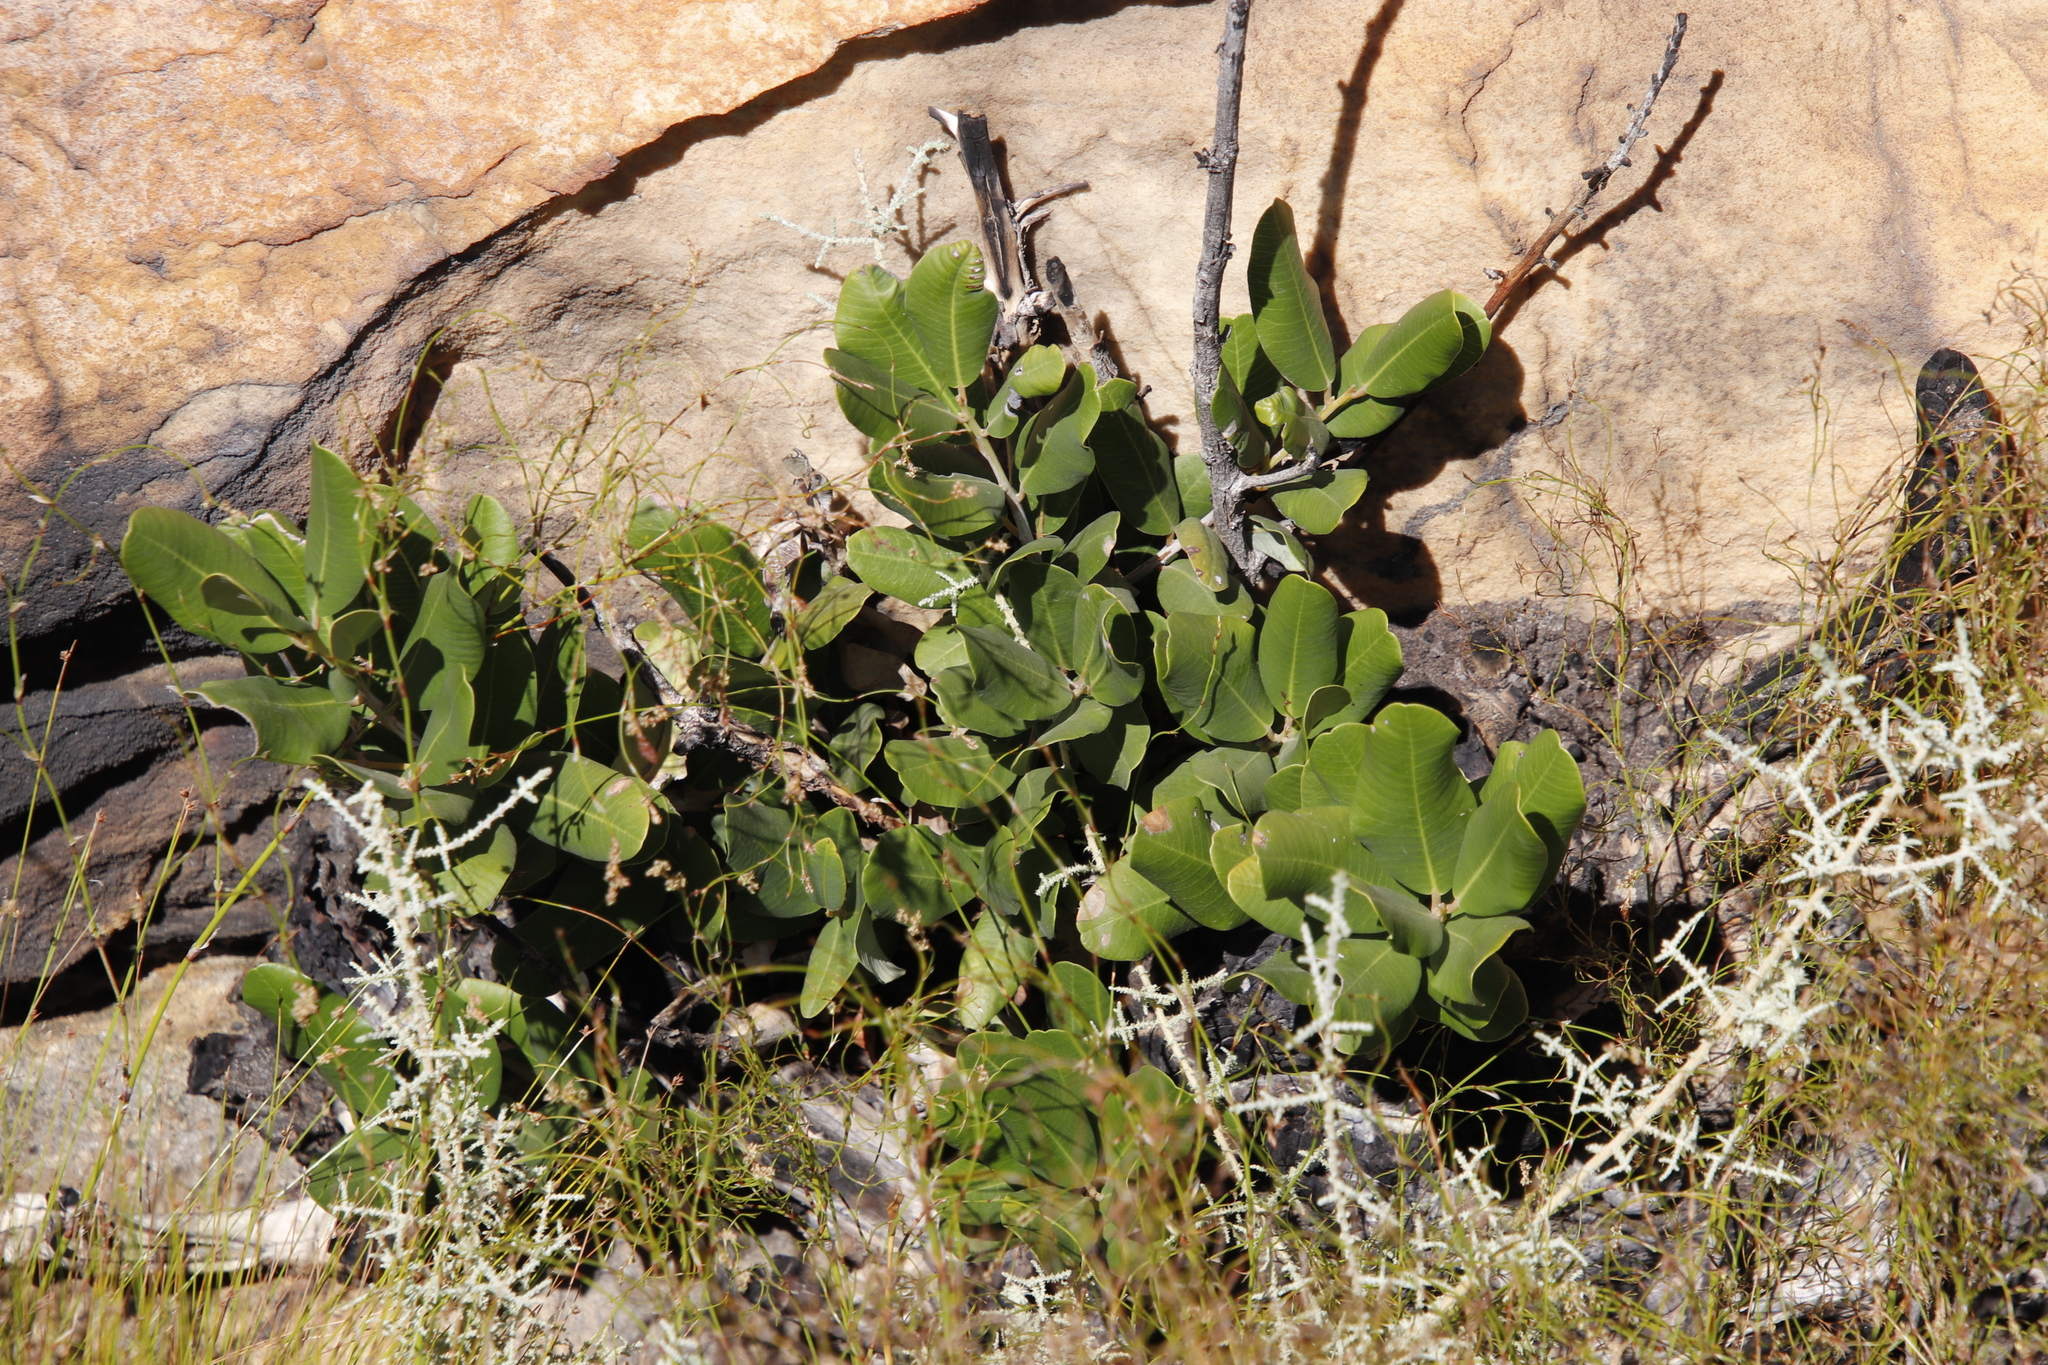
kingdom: Plantae
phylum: Tracheophyta
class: Magnoliopsida
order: Sapindales
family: Anacardiaceae
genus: Heeria
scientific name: Heeria argentea
